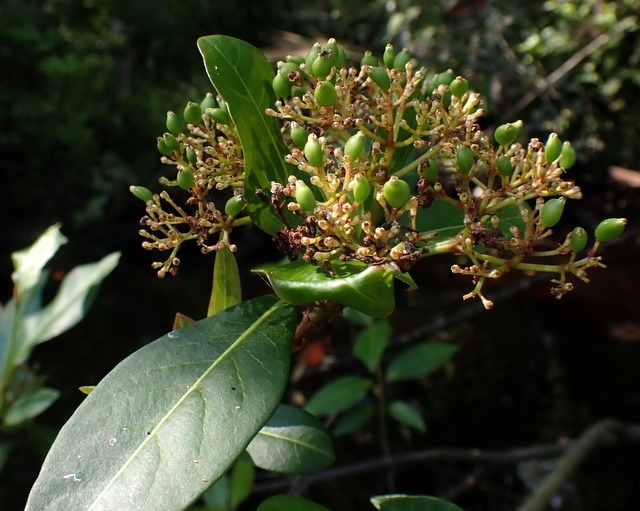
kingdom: Plantae
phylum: Tracheophyta
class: Magnoliopsida
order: Dipsacales
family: Viburnaceae
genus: Viburnum
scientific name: Viburnum nudum
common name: Possum haw
